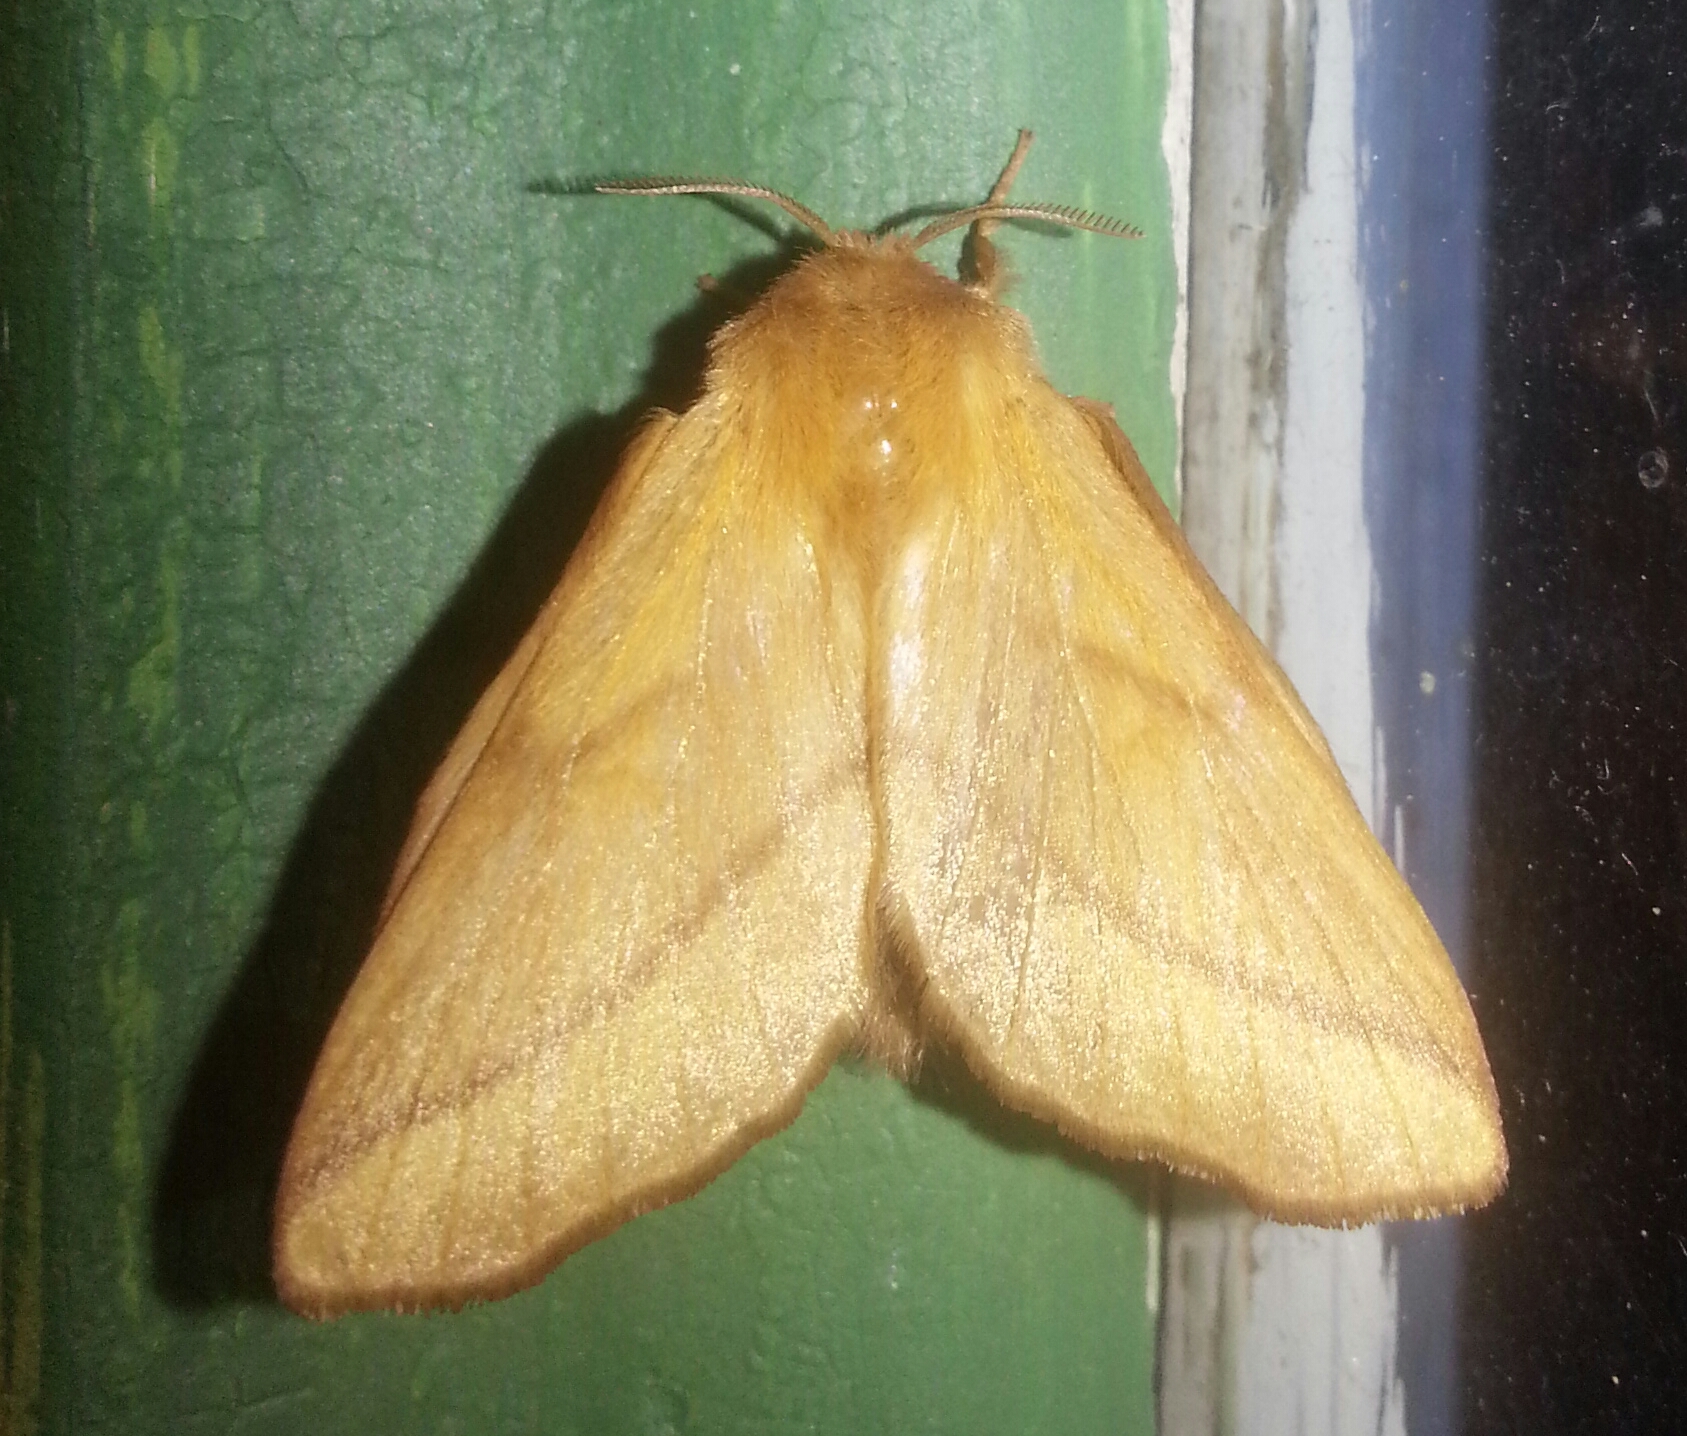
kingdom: Animalia
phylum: Arthropoda
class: Insecta
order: Lepidoptera
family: Lasiocampidae
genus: Malacosoma
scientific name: Malacosoma disstria
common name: Forest tent caterpillar
